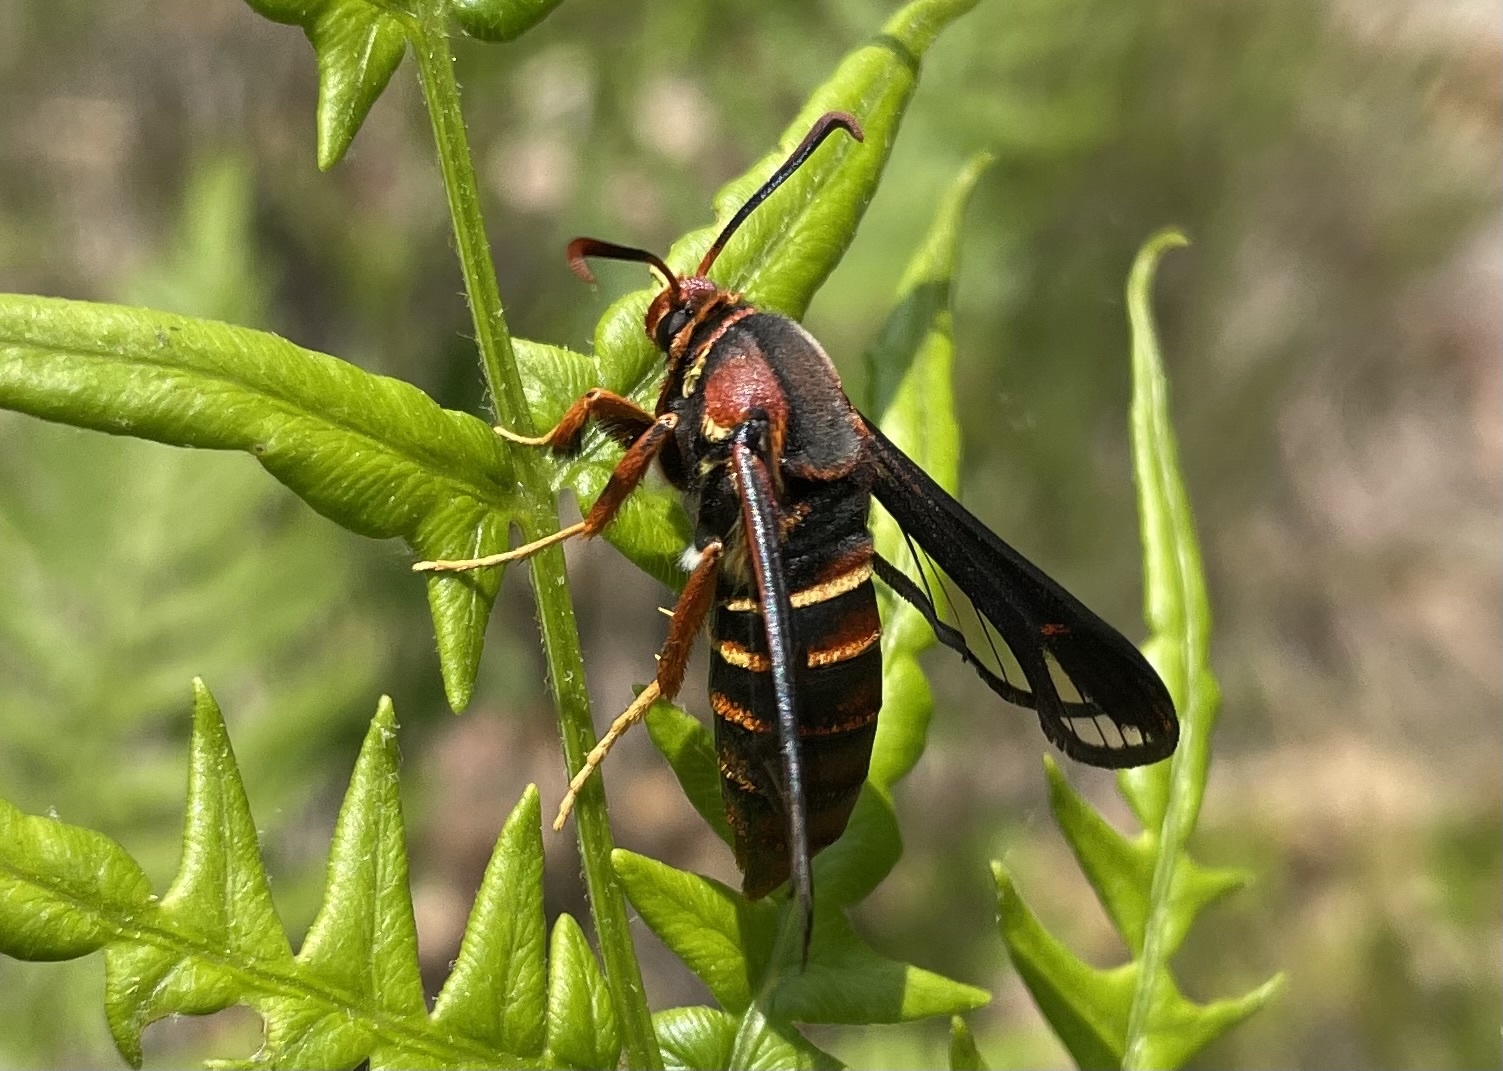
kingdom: Animalia
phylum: Arthropoda
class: Insecta
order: Lepidoptera
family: Sesiidae
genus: Paranthrene
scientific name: Paranthrene asilipennis
